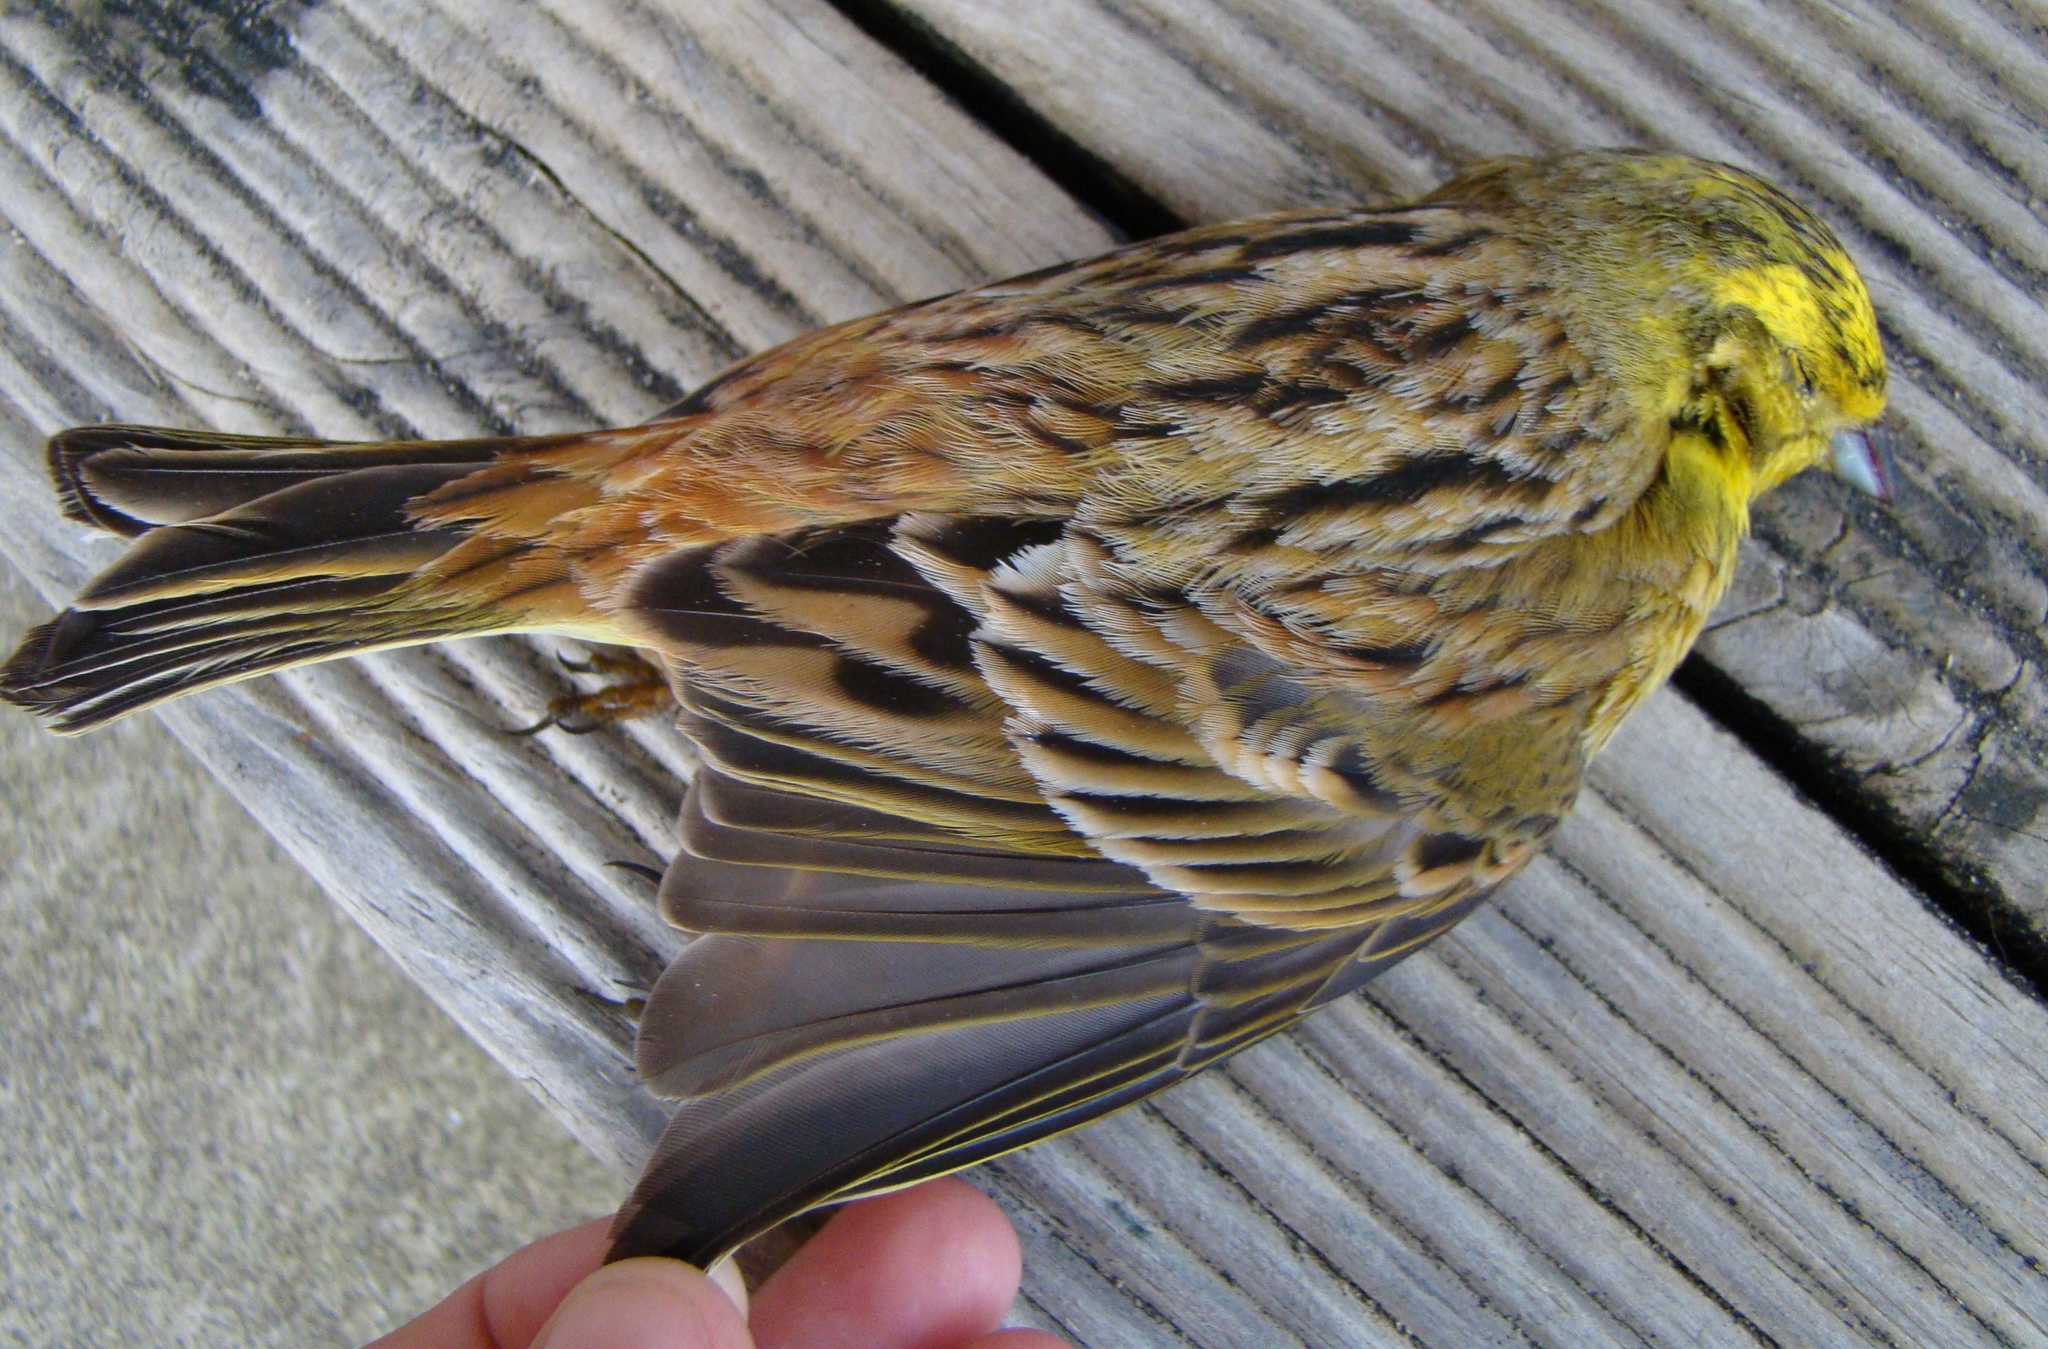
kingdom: Animalia
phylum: Chordata
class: Aves
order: Passeriformes
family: Emberizidae
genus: Emberiza
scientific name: Emberiza citrinella
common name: Yellowhammer
